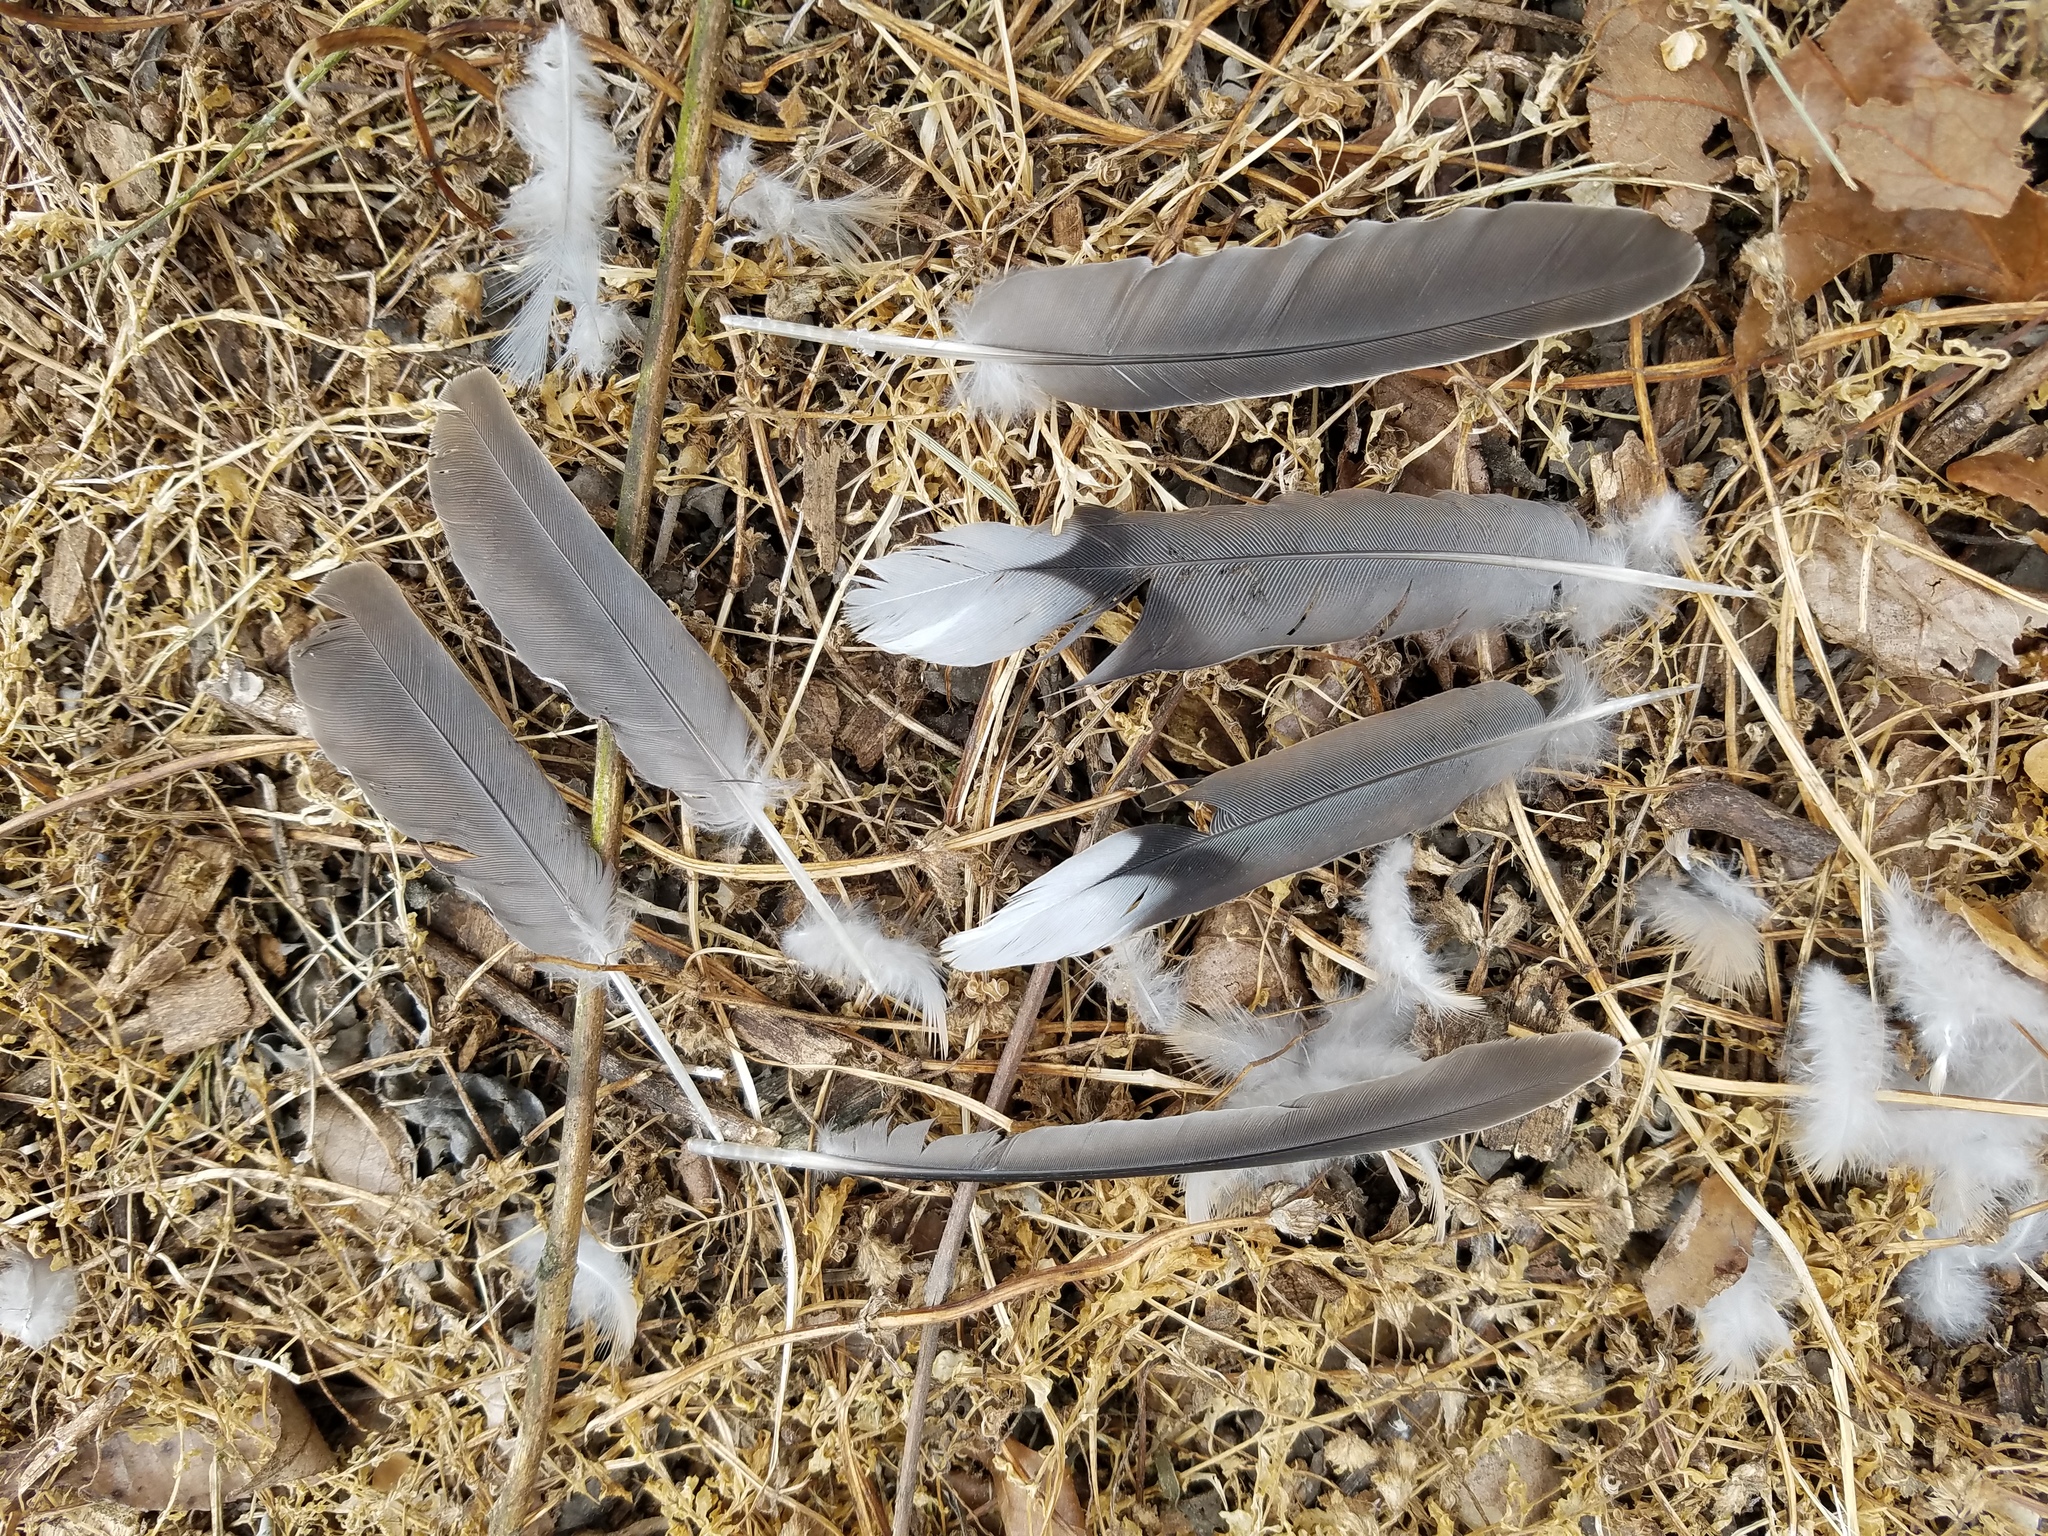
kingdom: Animalia
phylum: Chordata
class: Aves
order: Columbiformes
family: Columbidae
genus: Zenaida
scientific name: Zenaida macroura
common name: Mourning dove
